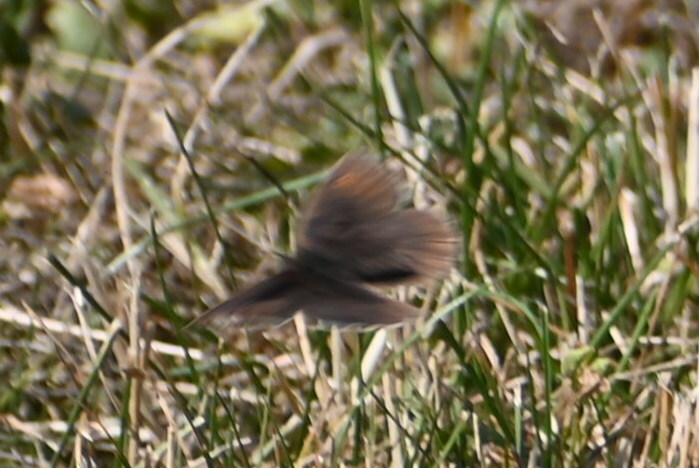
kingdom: Animalia
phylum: Arthropoda
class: Insecta
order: Lepidoptera
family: Nymphalidae
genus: Maniola
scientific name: Maniola jurtina
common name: Meadow brown
